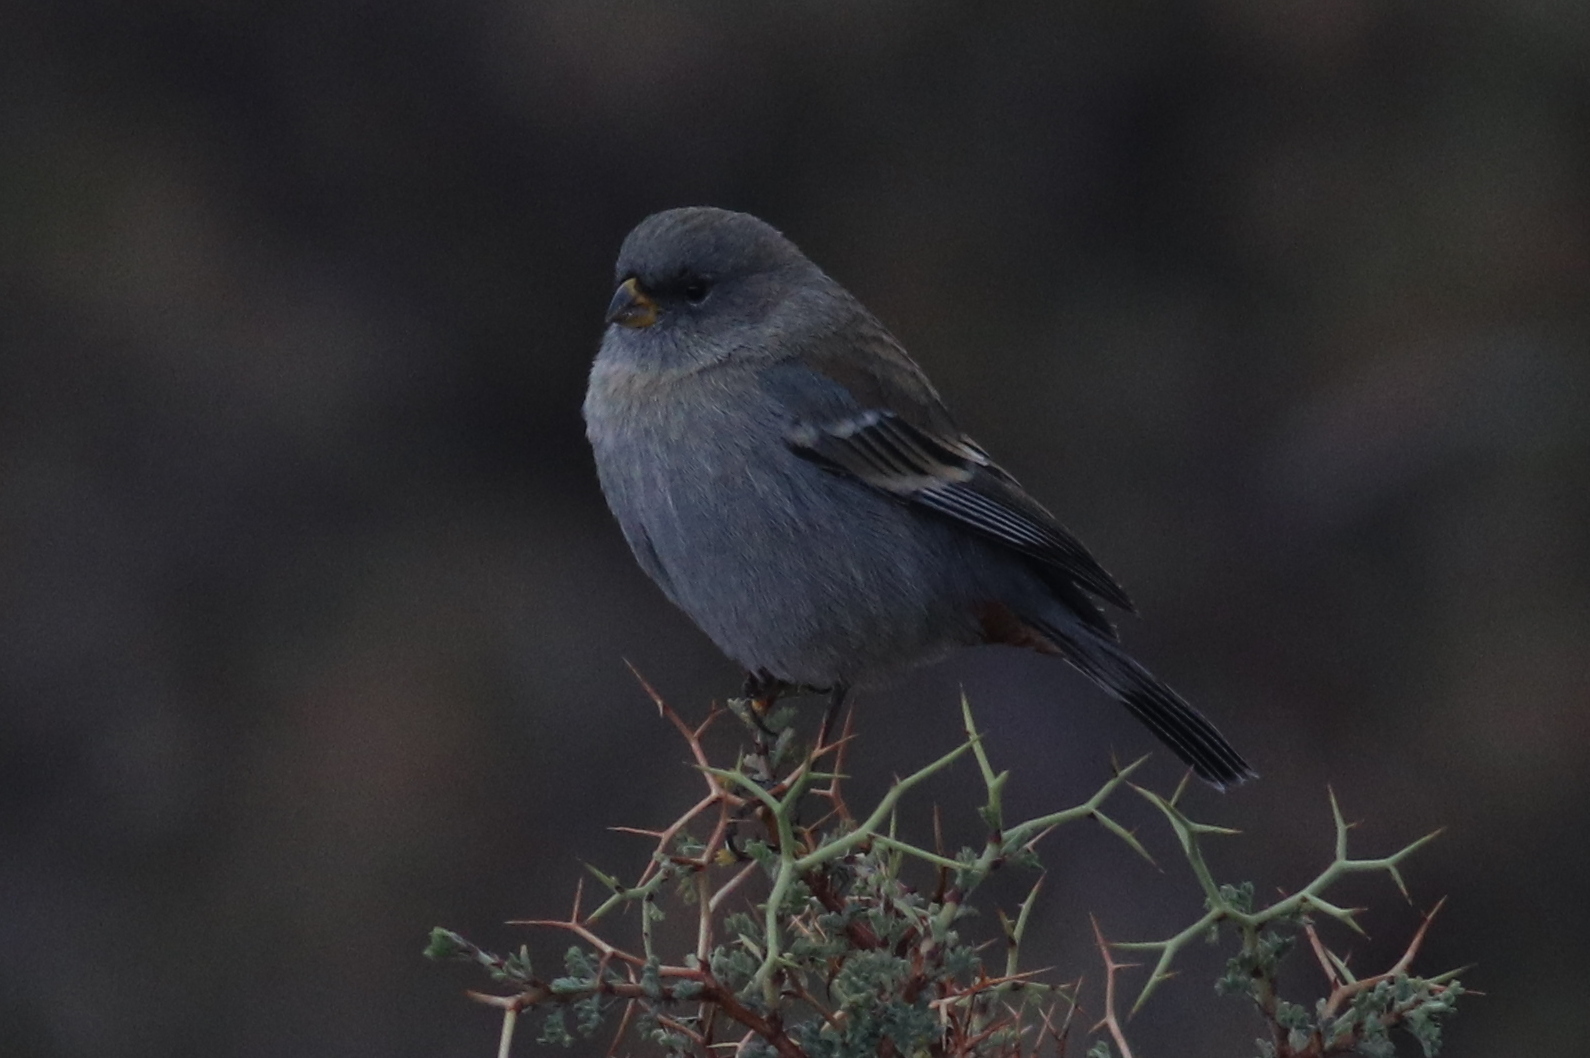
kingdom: Animalia
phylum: Chordata
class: Aves
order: Passeriformes
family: Thraupidae
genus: Catamenia
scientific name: Catamenia analis
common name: Band-tailed seedeater
